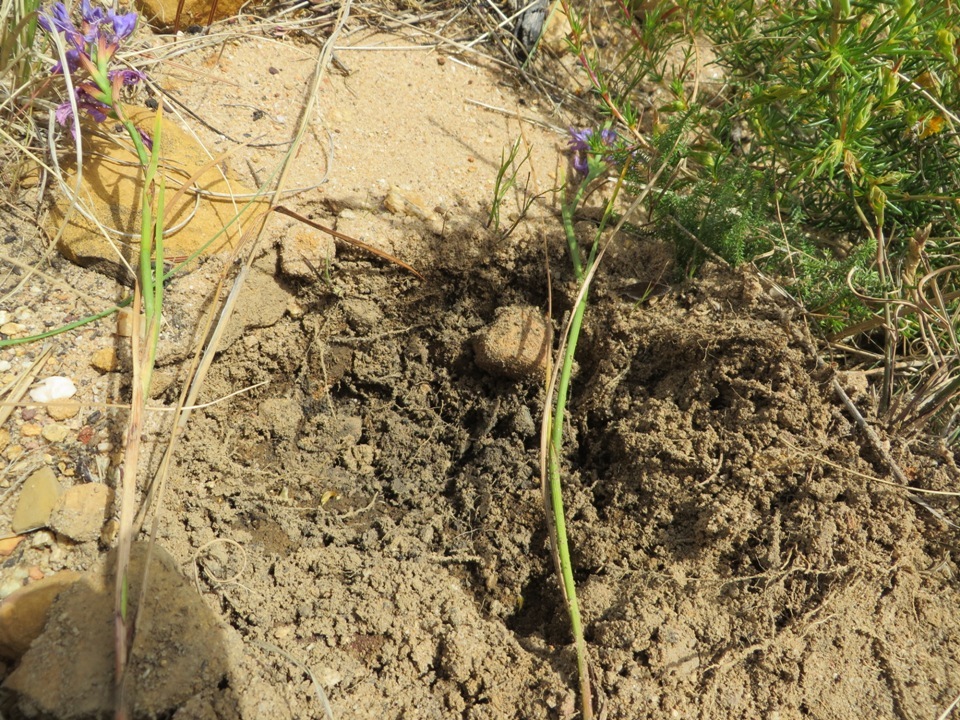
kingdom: Animalia
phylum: Chordata
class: Mammalia
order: Primates
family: Cercopithecidae
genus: Papio
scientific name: Papio ursinus
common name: Chacma baboon
